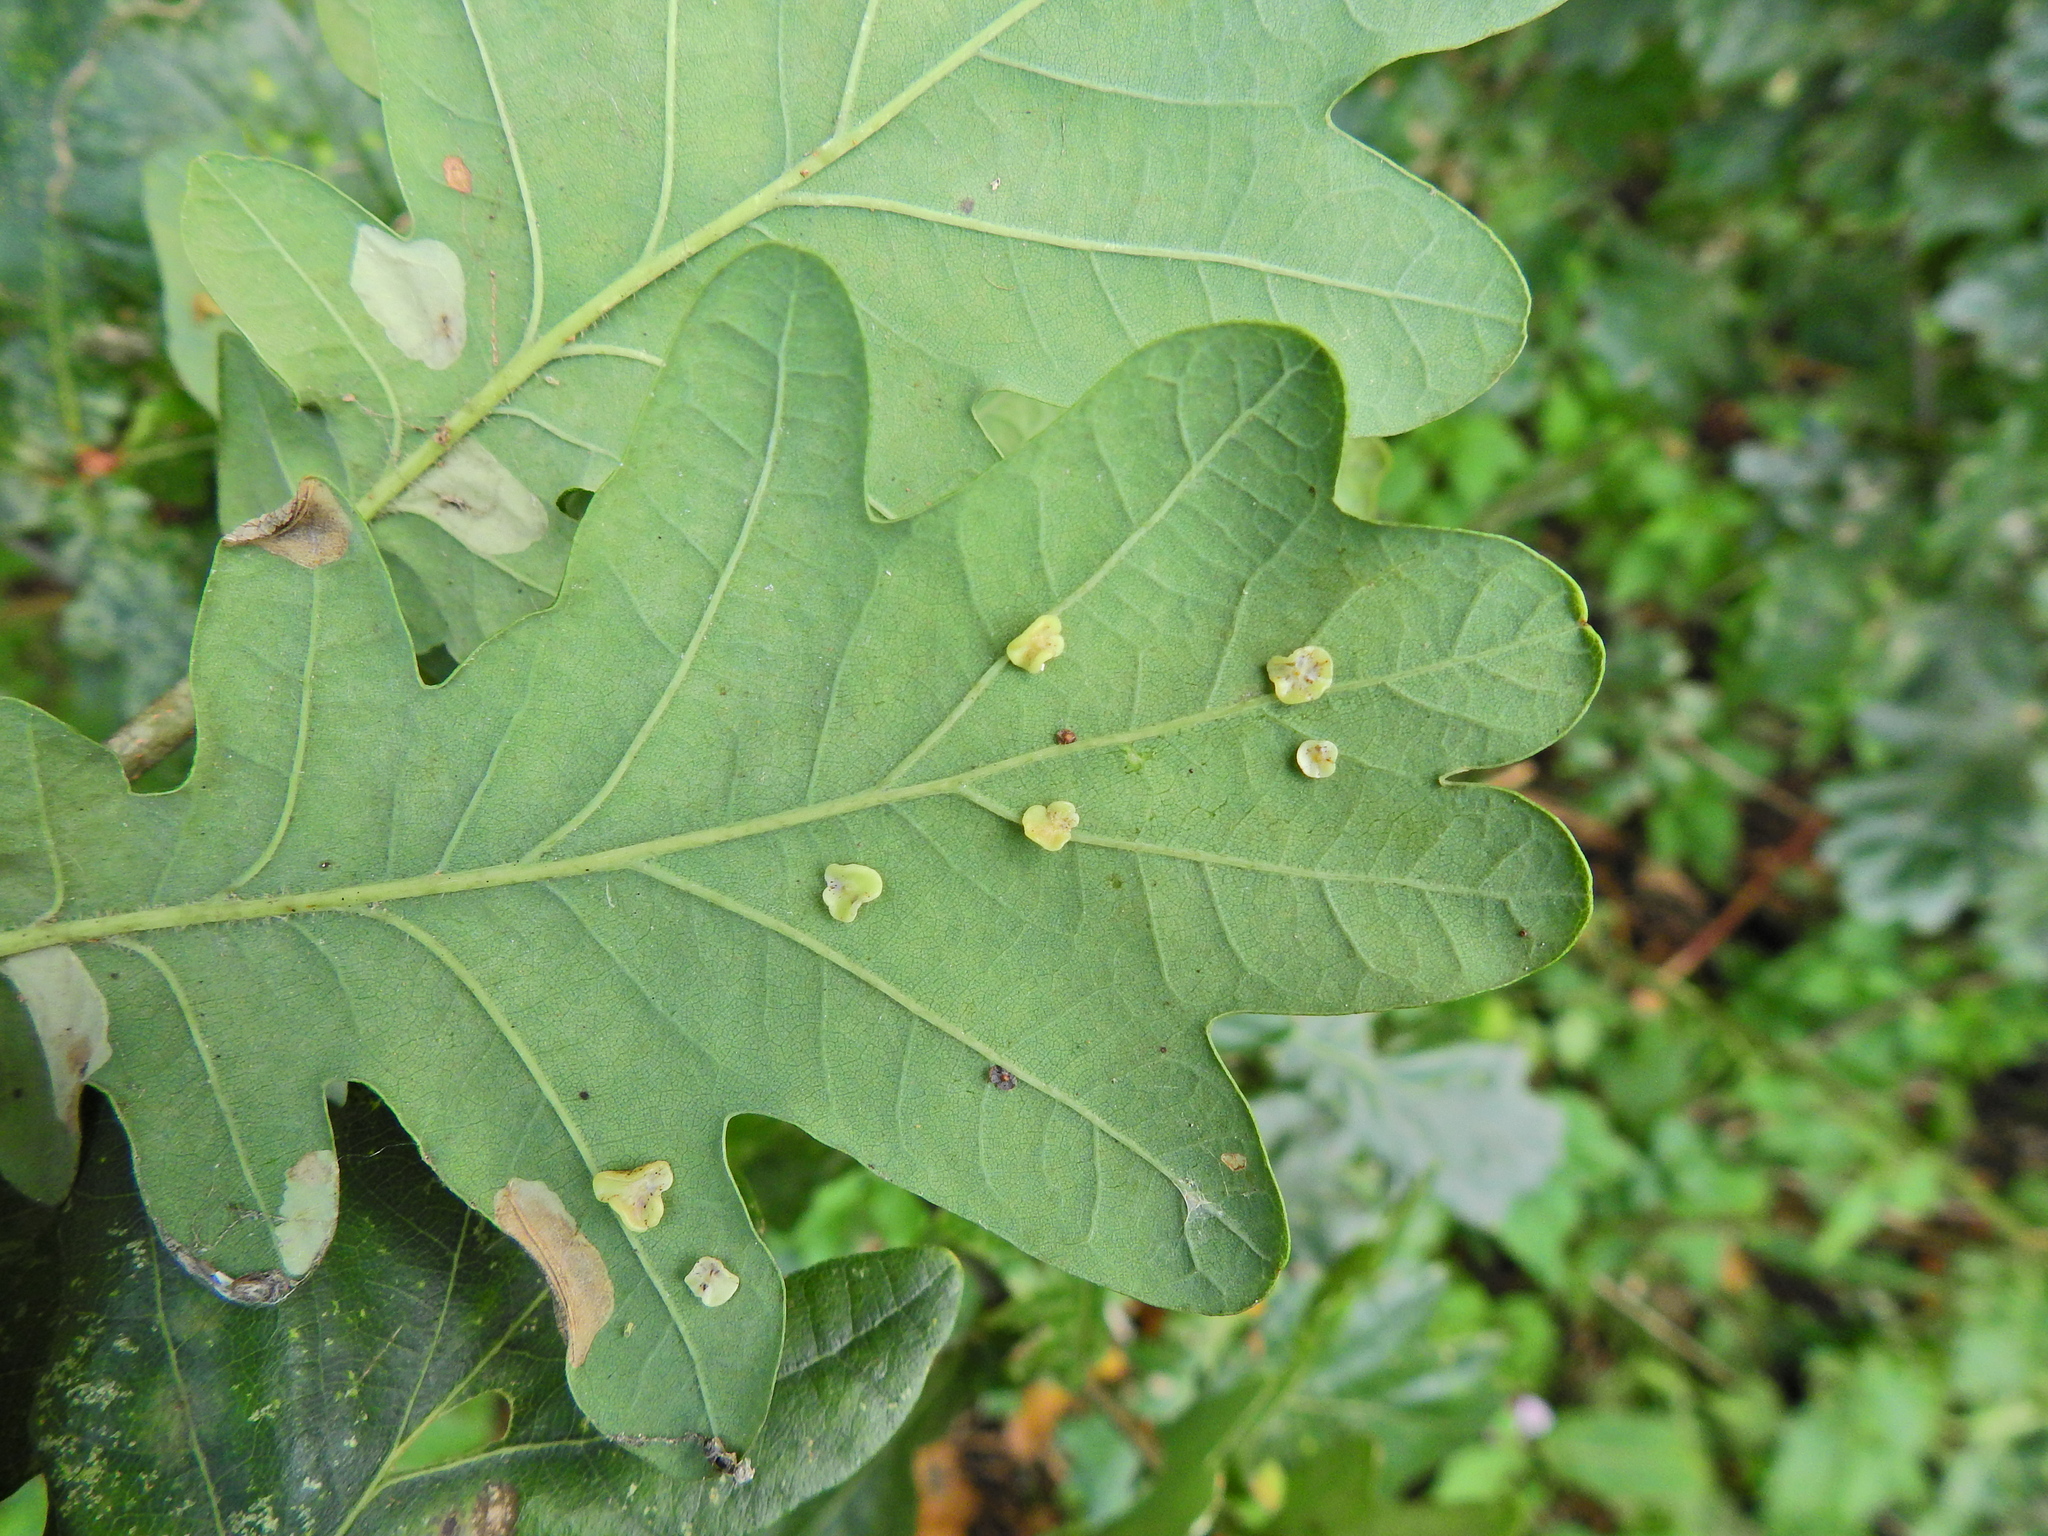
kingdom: Animalia
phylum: Arthropoda
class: Insecta
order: Hymenoptera
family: Cynipidae
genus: Neuroterus
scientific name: Neuroterus albipes
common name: Smooth spangle gall
